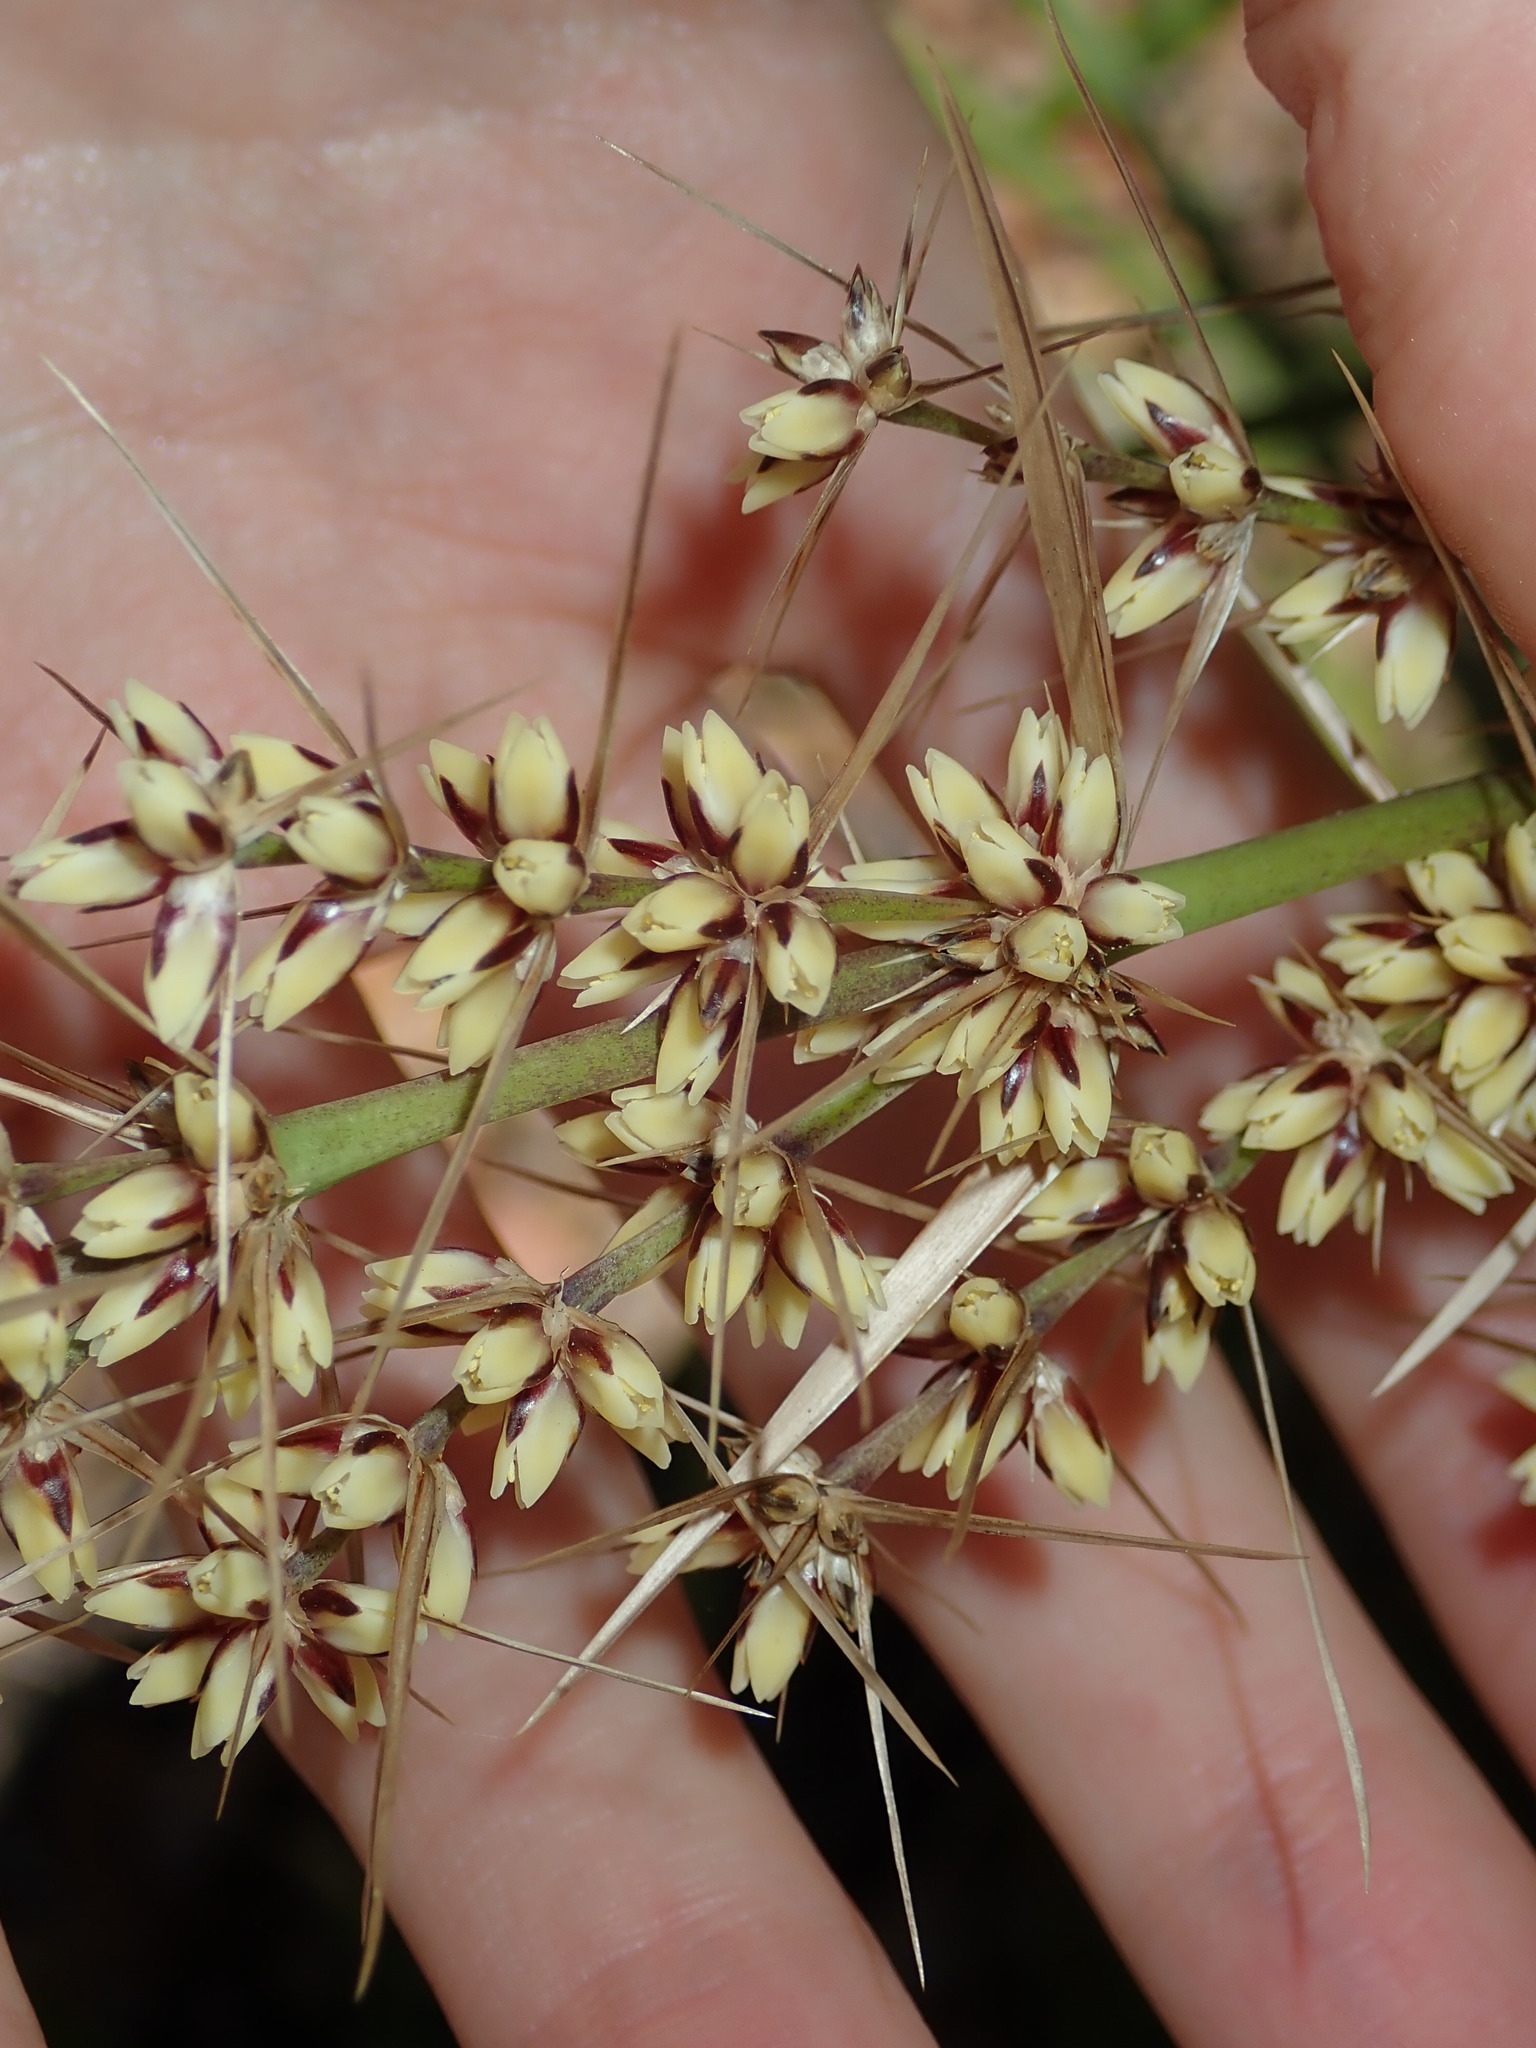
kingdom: Plantae
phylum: Tracheophyta
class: Liliopsida
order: Asparagales
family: Asparagaceae
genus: Lomandra
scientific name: Lomandra longifolia
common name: Longleaf mat-rush
